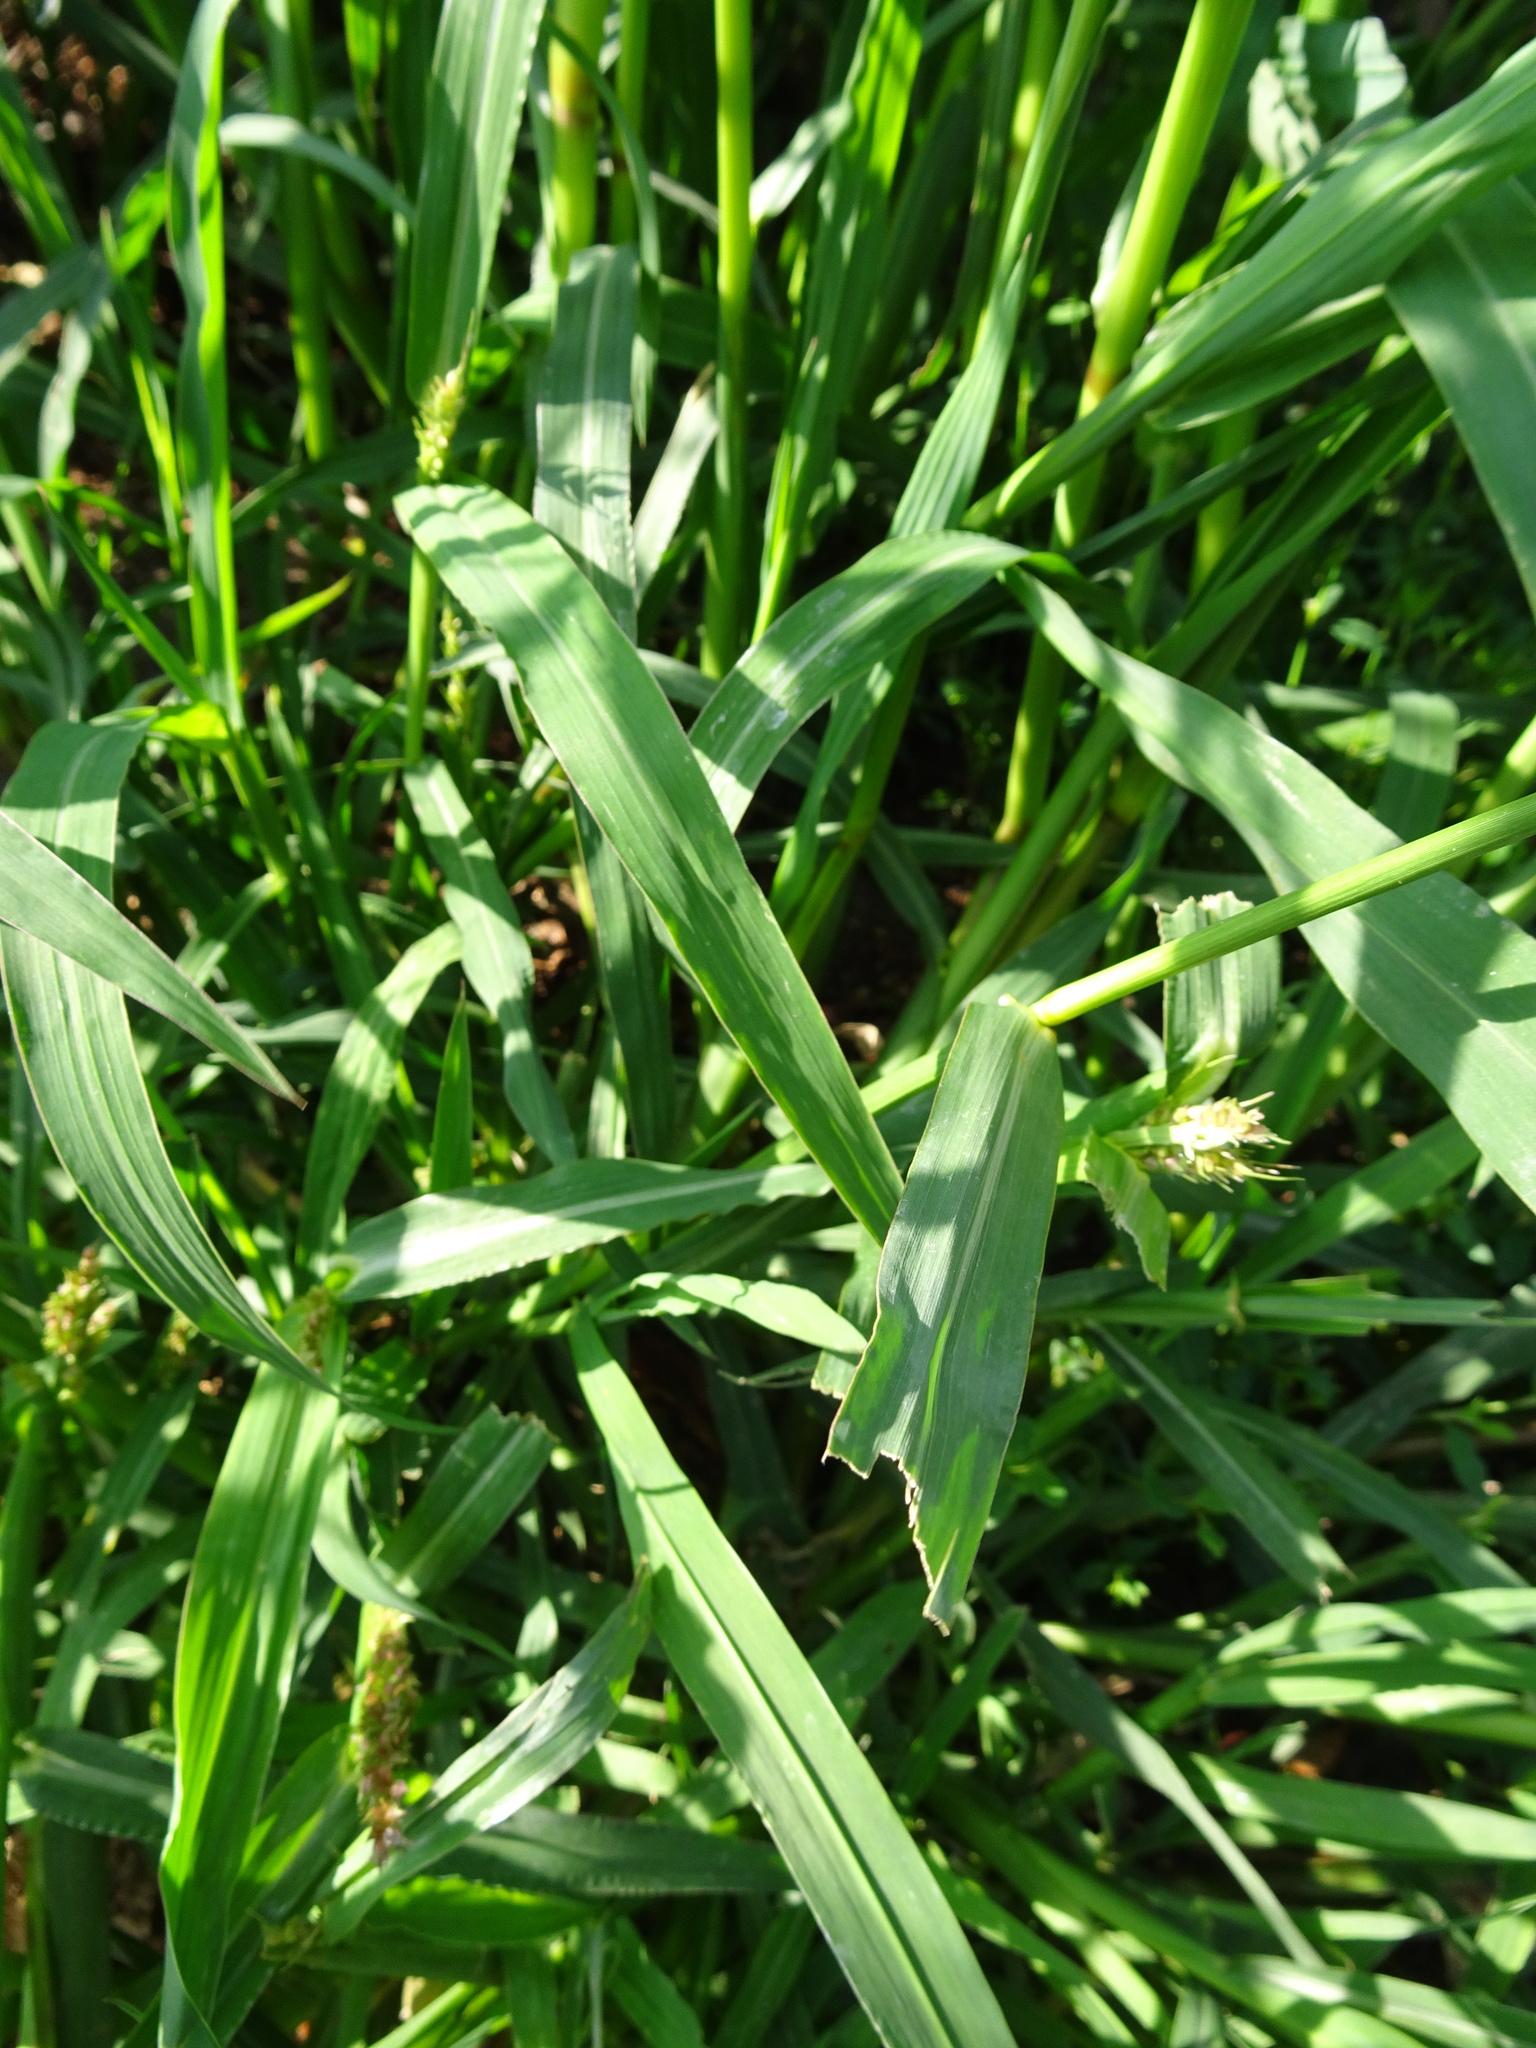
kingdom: Plantae
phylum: Tracheophyta
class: Liliopsida
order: Poales
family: Poaceae
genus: Echinochloa
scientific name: Echinochloa crus-galli
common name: Cockspur
